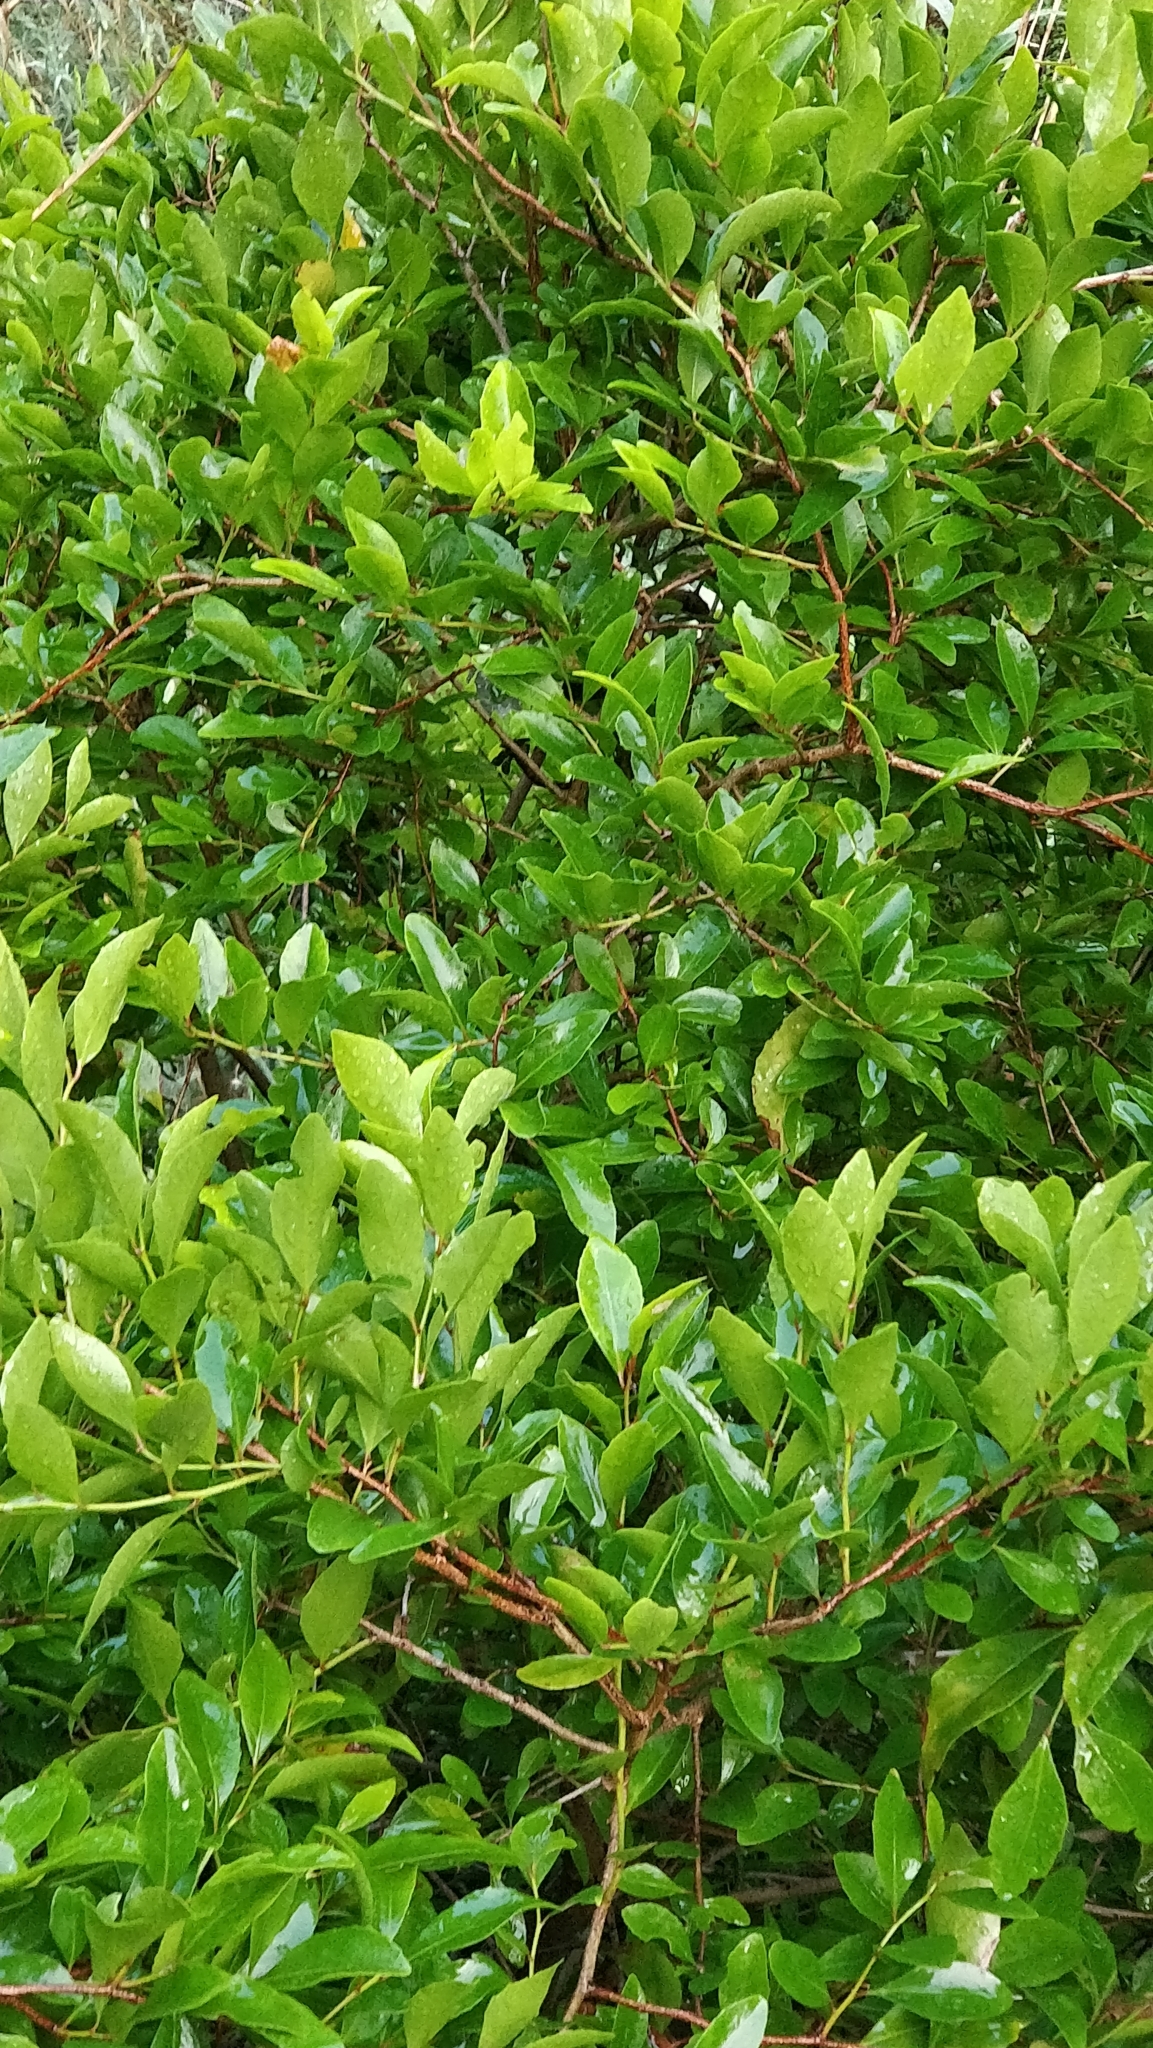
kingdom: Plantae
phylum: Tracheophyta
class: Magnoliopsida
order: Celastrales
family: Celastraceae
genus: Gymnosporia
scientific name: Gymnosporia dryandri
